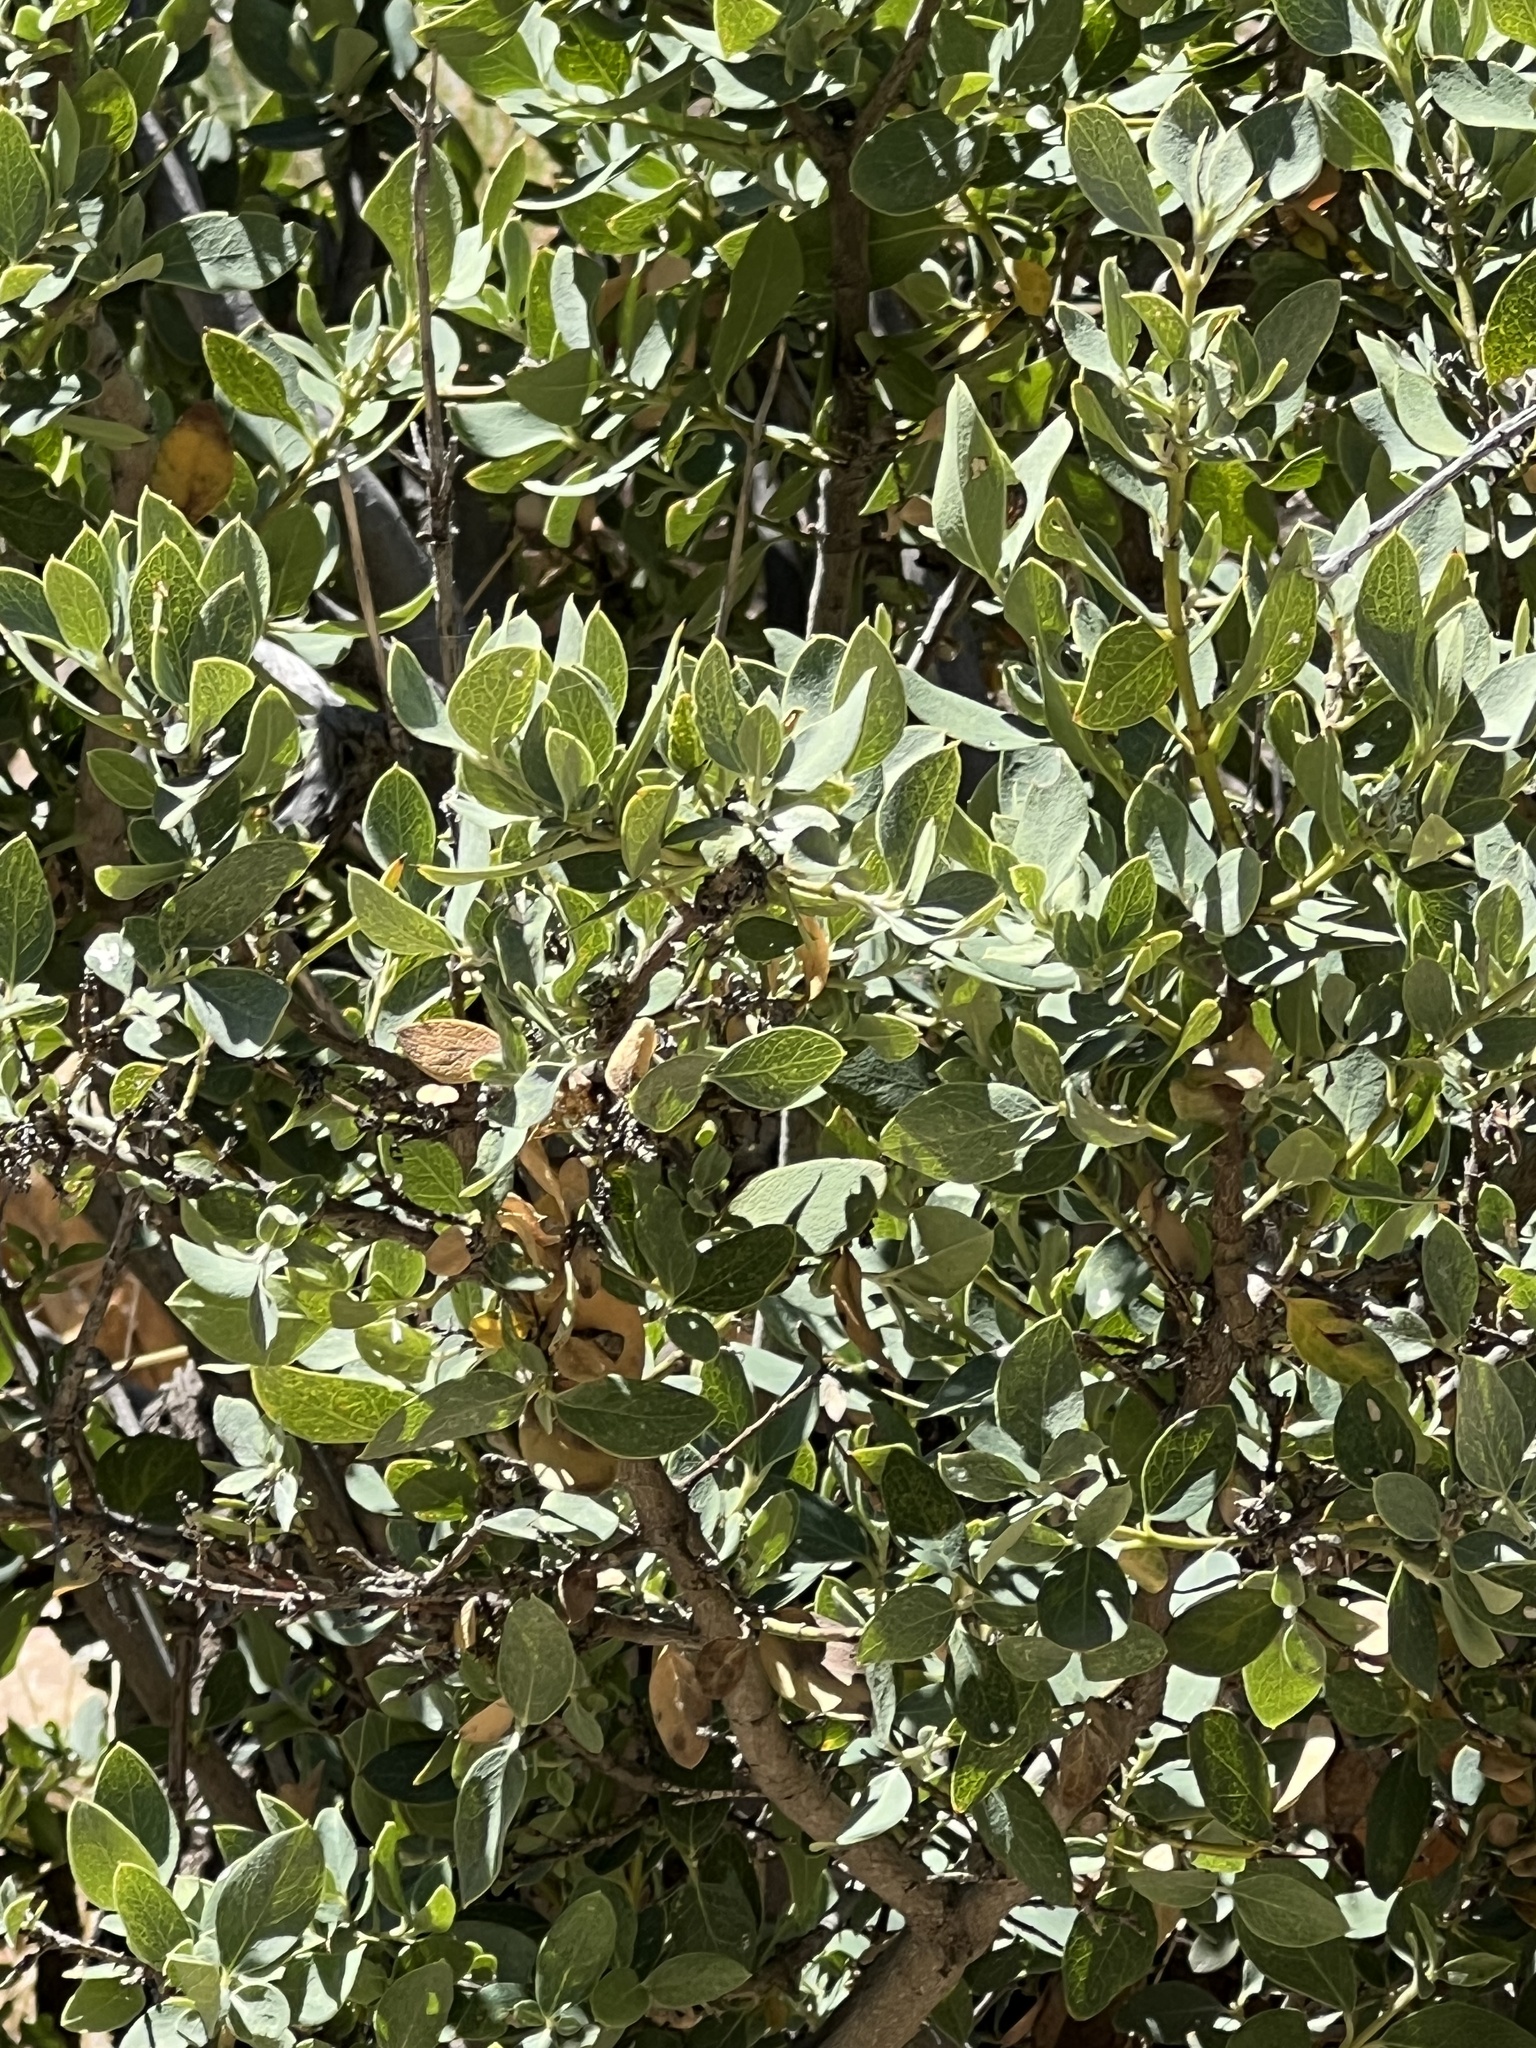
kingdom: Plantae
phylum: Tracheophyta
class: Magnoliopsida
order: Garryales
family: Garryaceae
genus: Garrya
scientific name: Garrya wrightii
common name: Wright's silktassel
